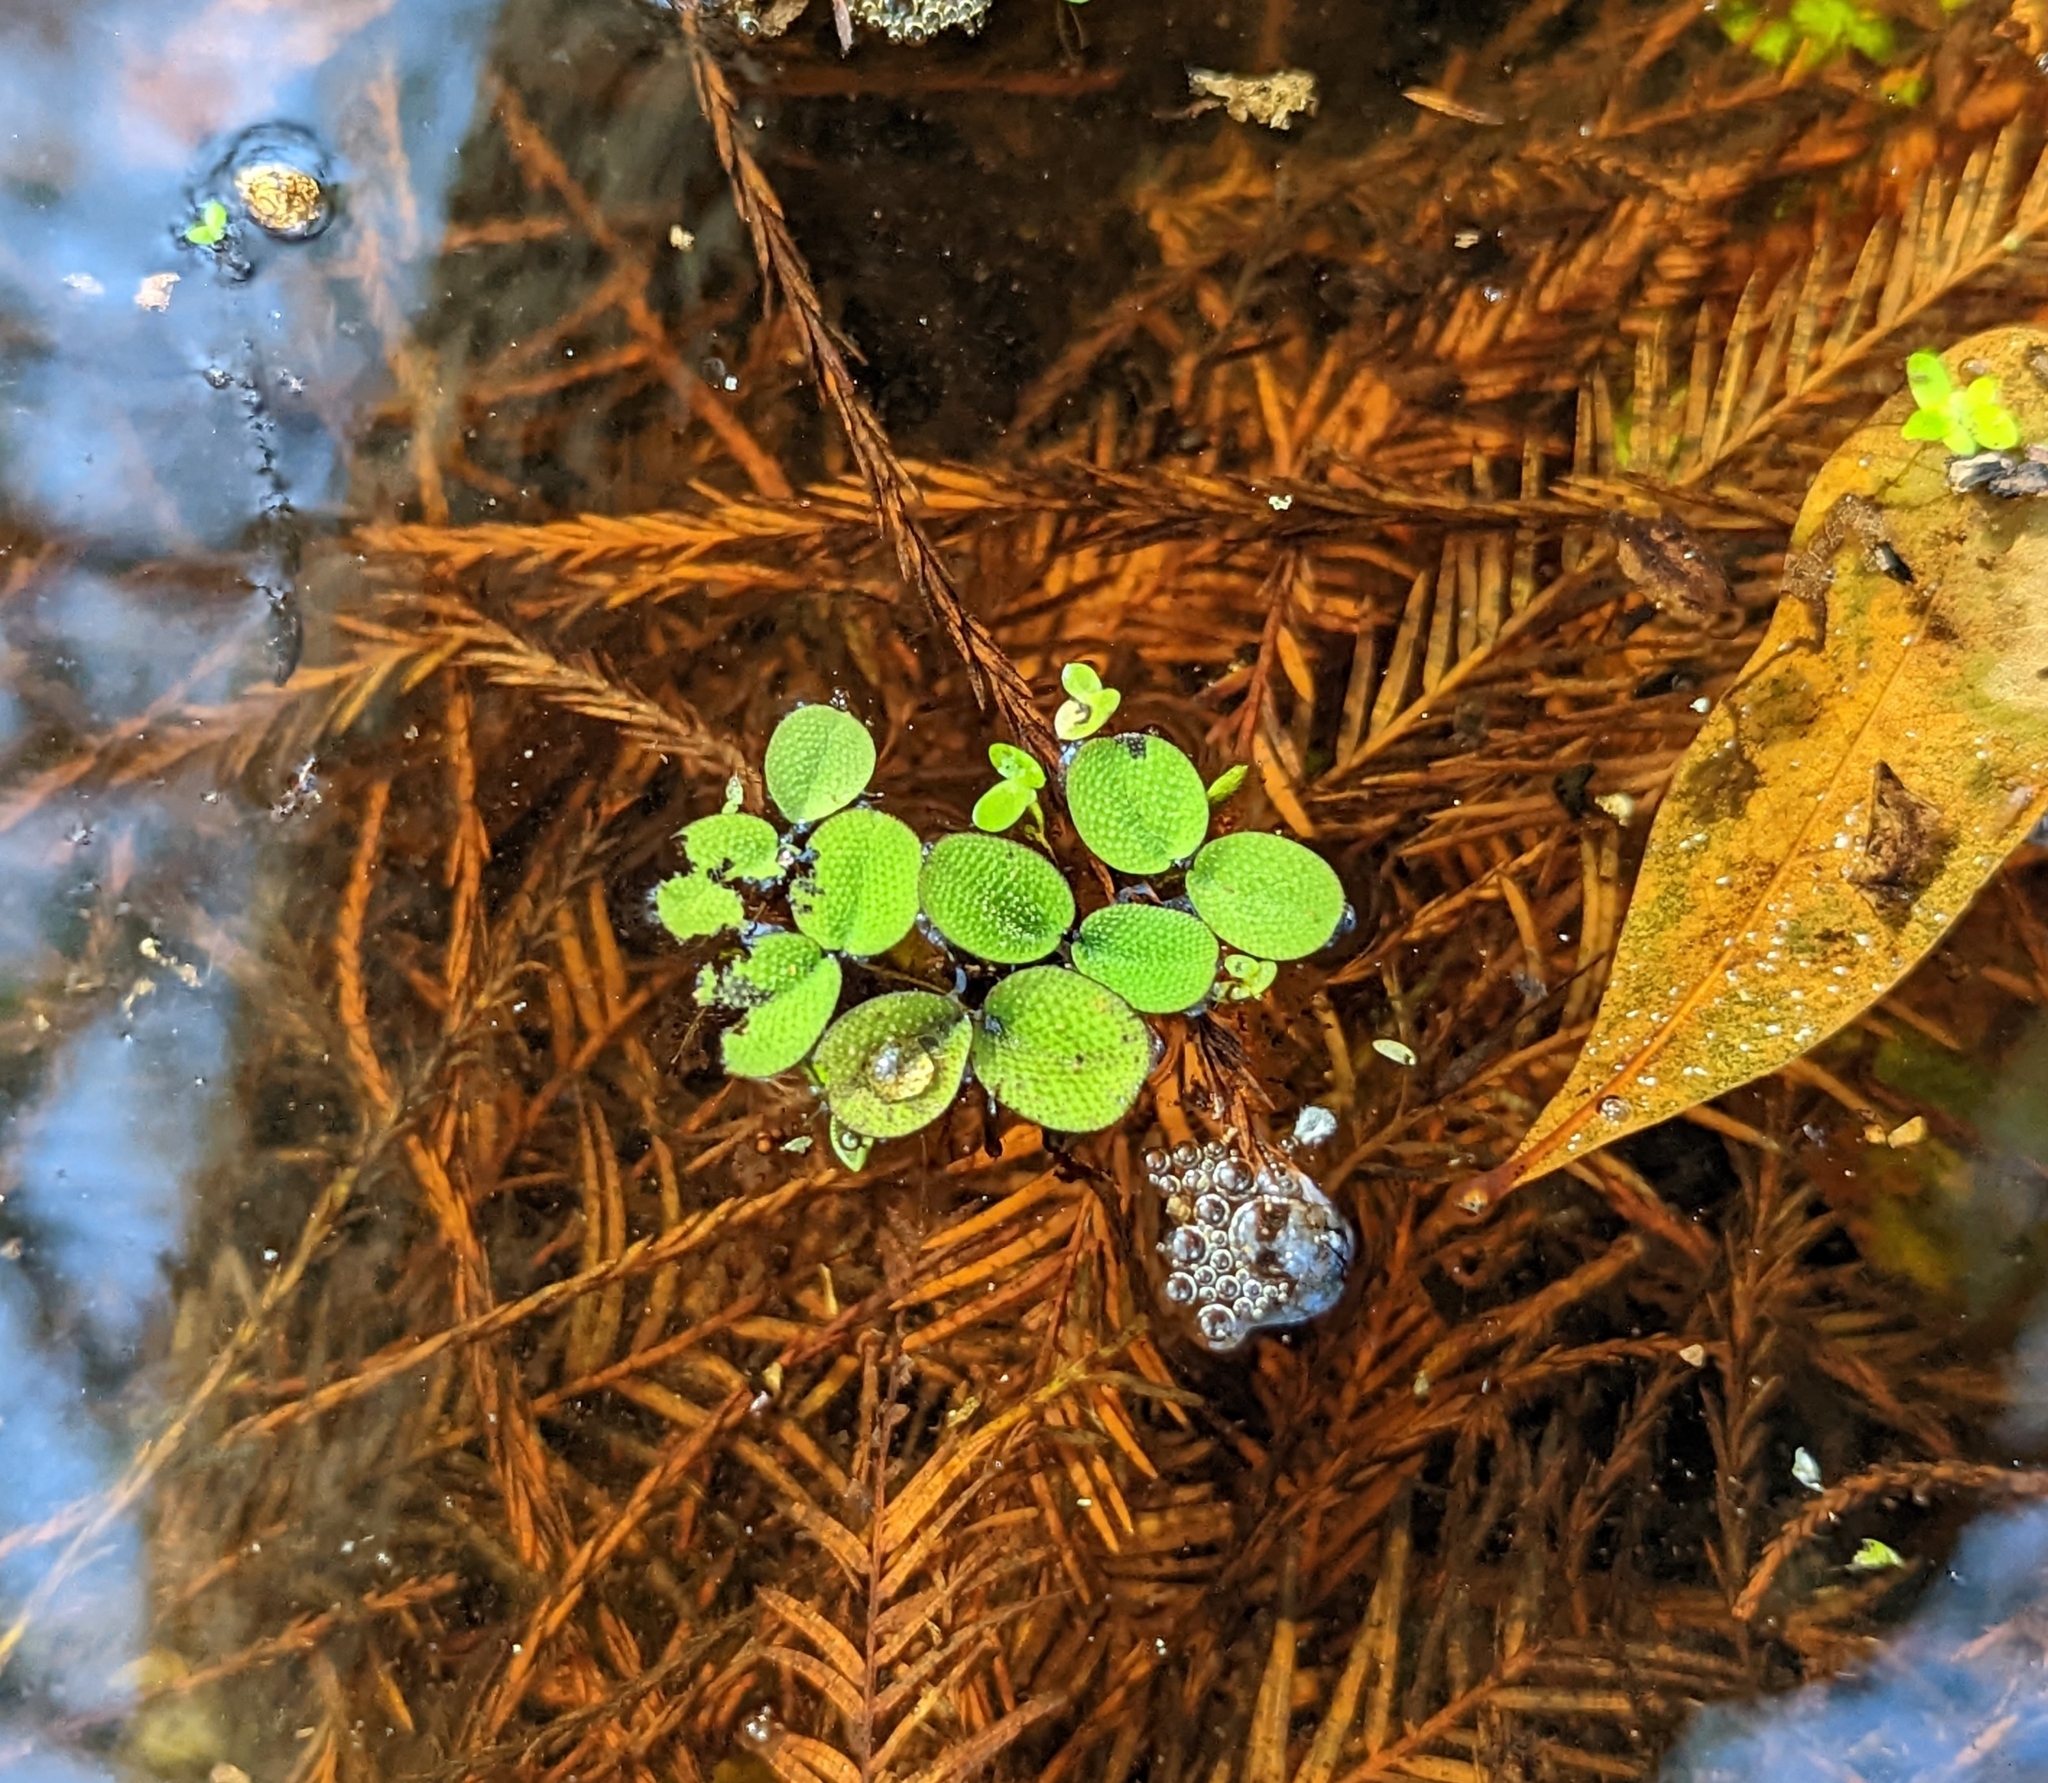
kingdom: Plantae
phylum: Tracheophyta
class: Polypodiopsida
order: Salviniales
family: Salviniaceae
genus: Salvinia
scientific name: Salvinia minima
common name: Water spangles
